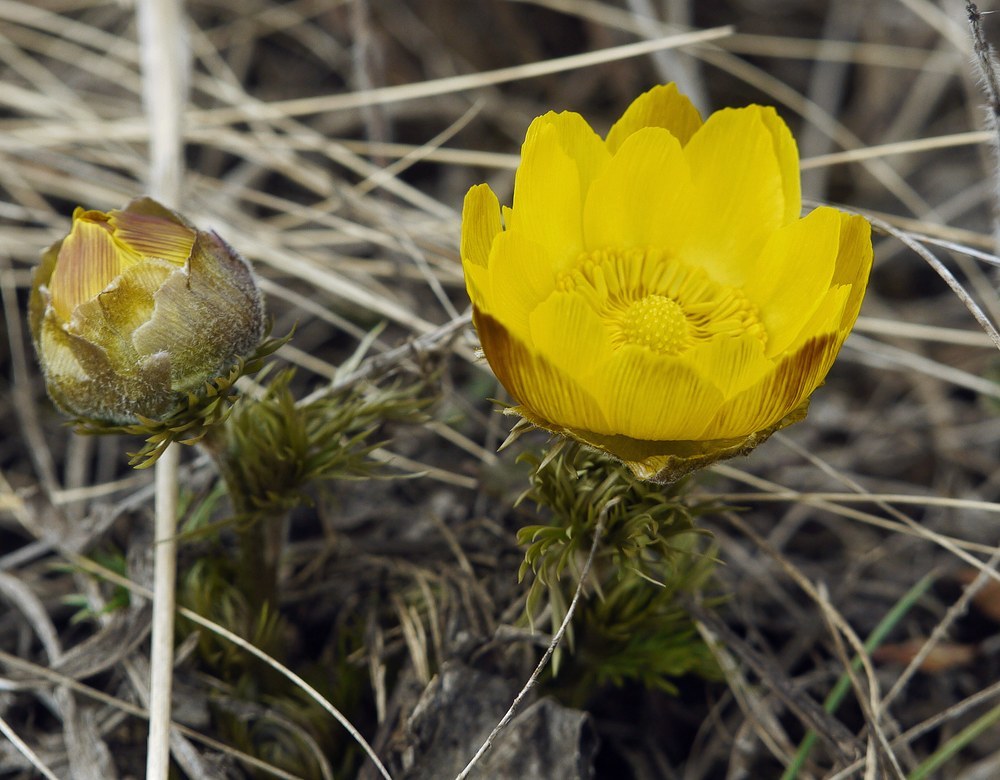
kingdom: Plantae
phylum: Tracheophyta
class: Magnoliopsida
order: Ranunculales
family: Ranunculaceae
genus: Adonis
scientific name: Adonis vernalis
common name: Yellow pheasants-eye
